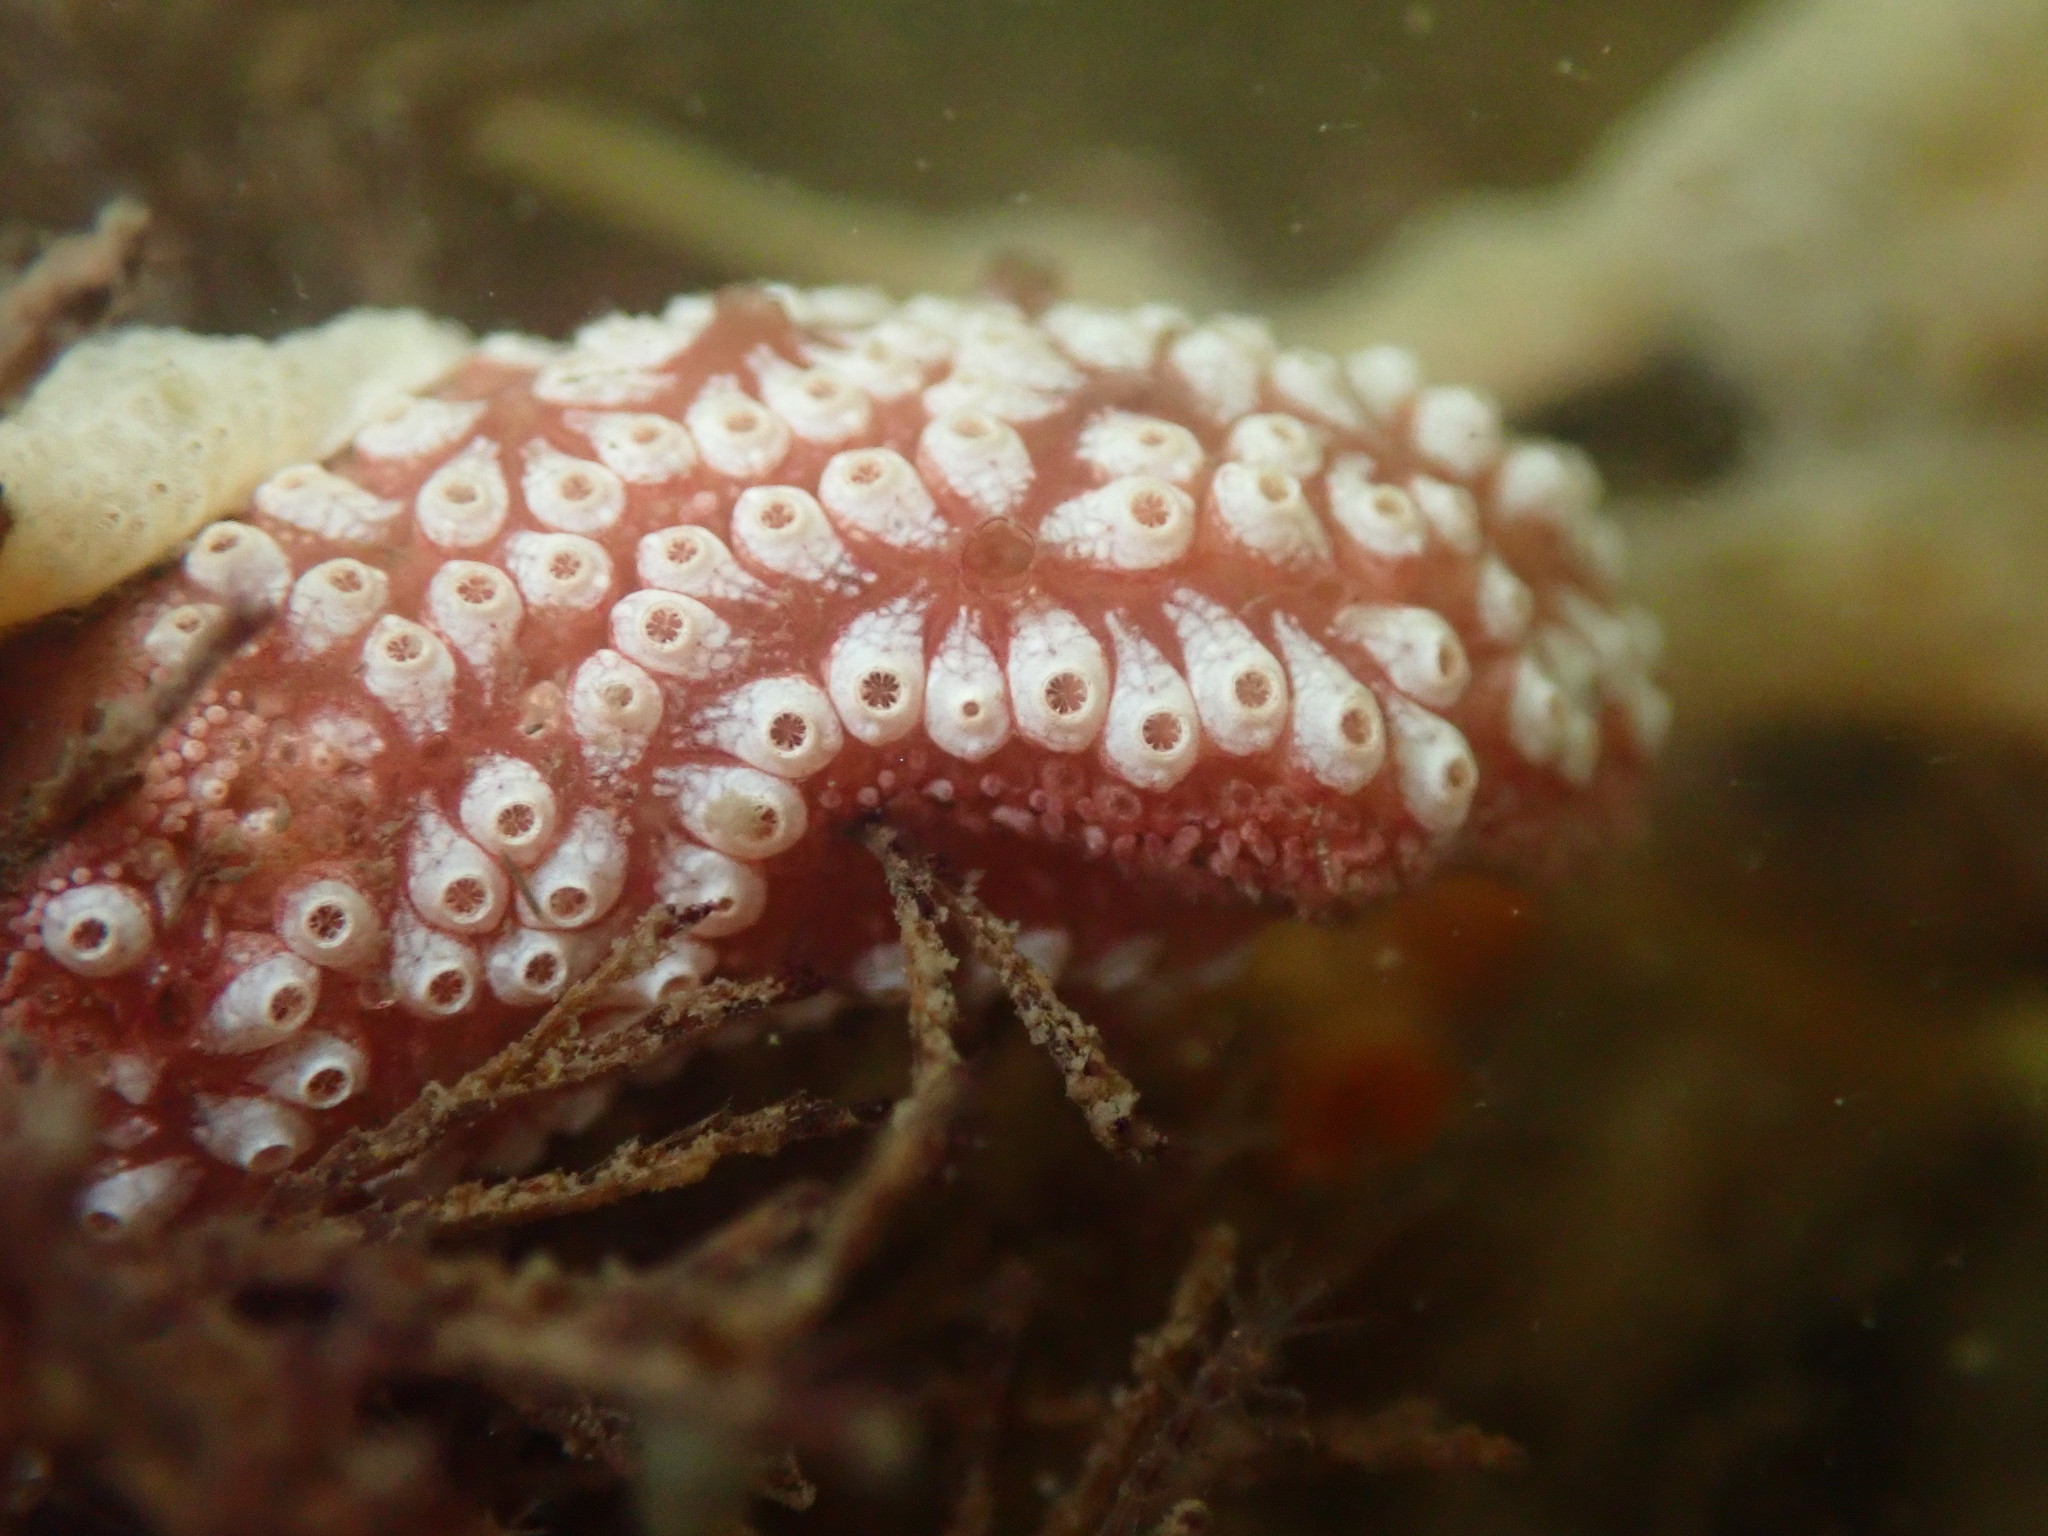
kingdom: Animalia
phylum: Chordata
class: Ascidiacea
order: Stolidobranchia
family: Styelidae
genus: Botrylloides
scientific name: Botrylloides diegensis
